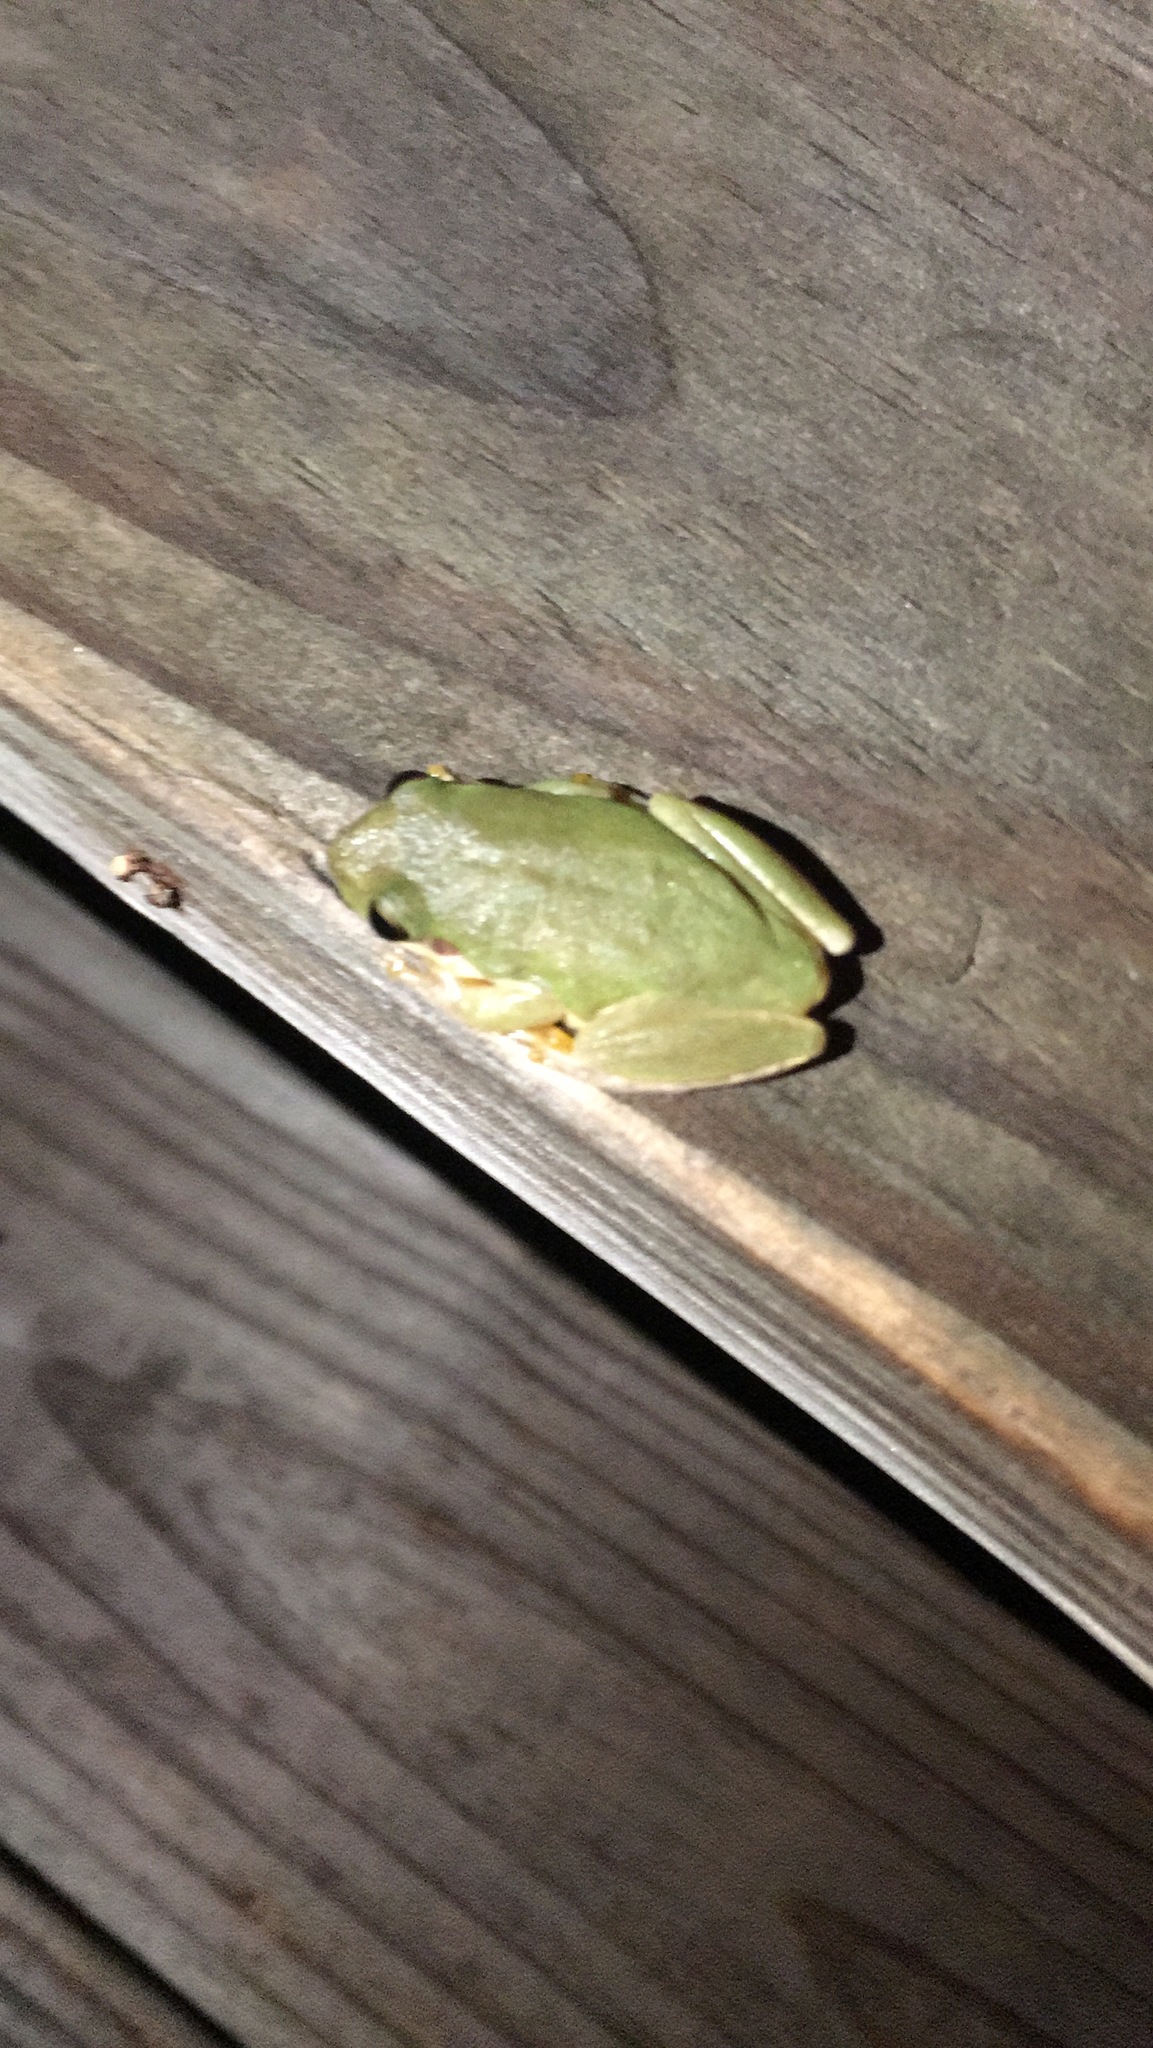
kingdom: Animalia
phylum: Chordata
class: Amphibia
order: Anura
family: Hylidae
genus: Dryophytes
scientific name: Dryophytes squirellus
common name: Squirrel treefrog
